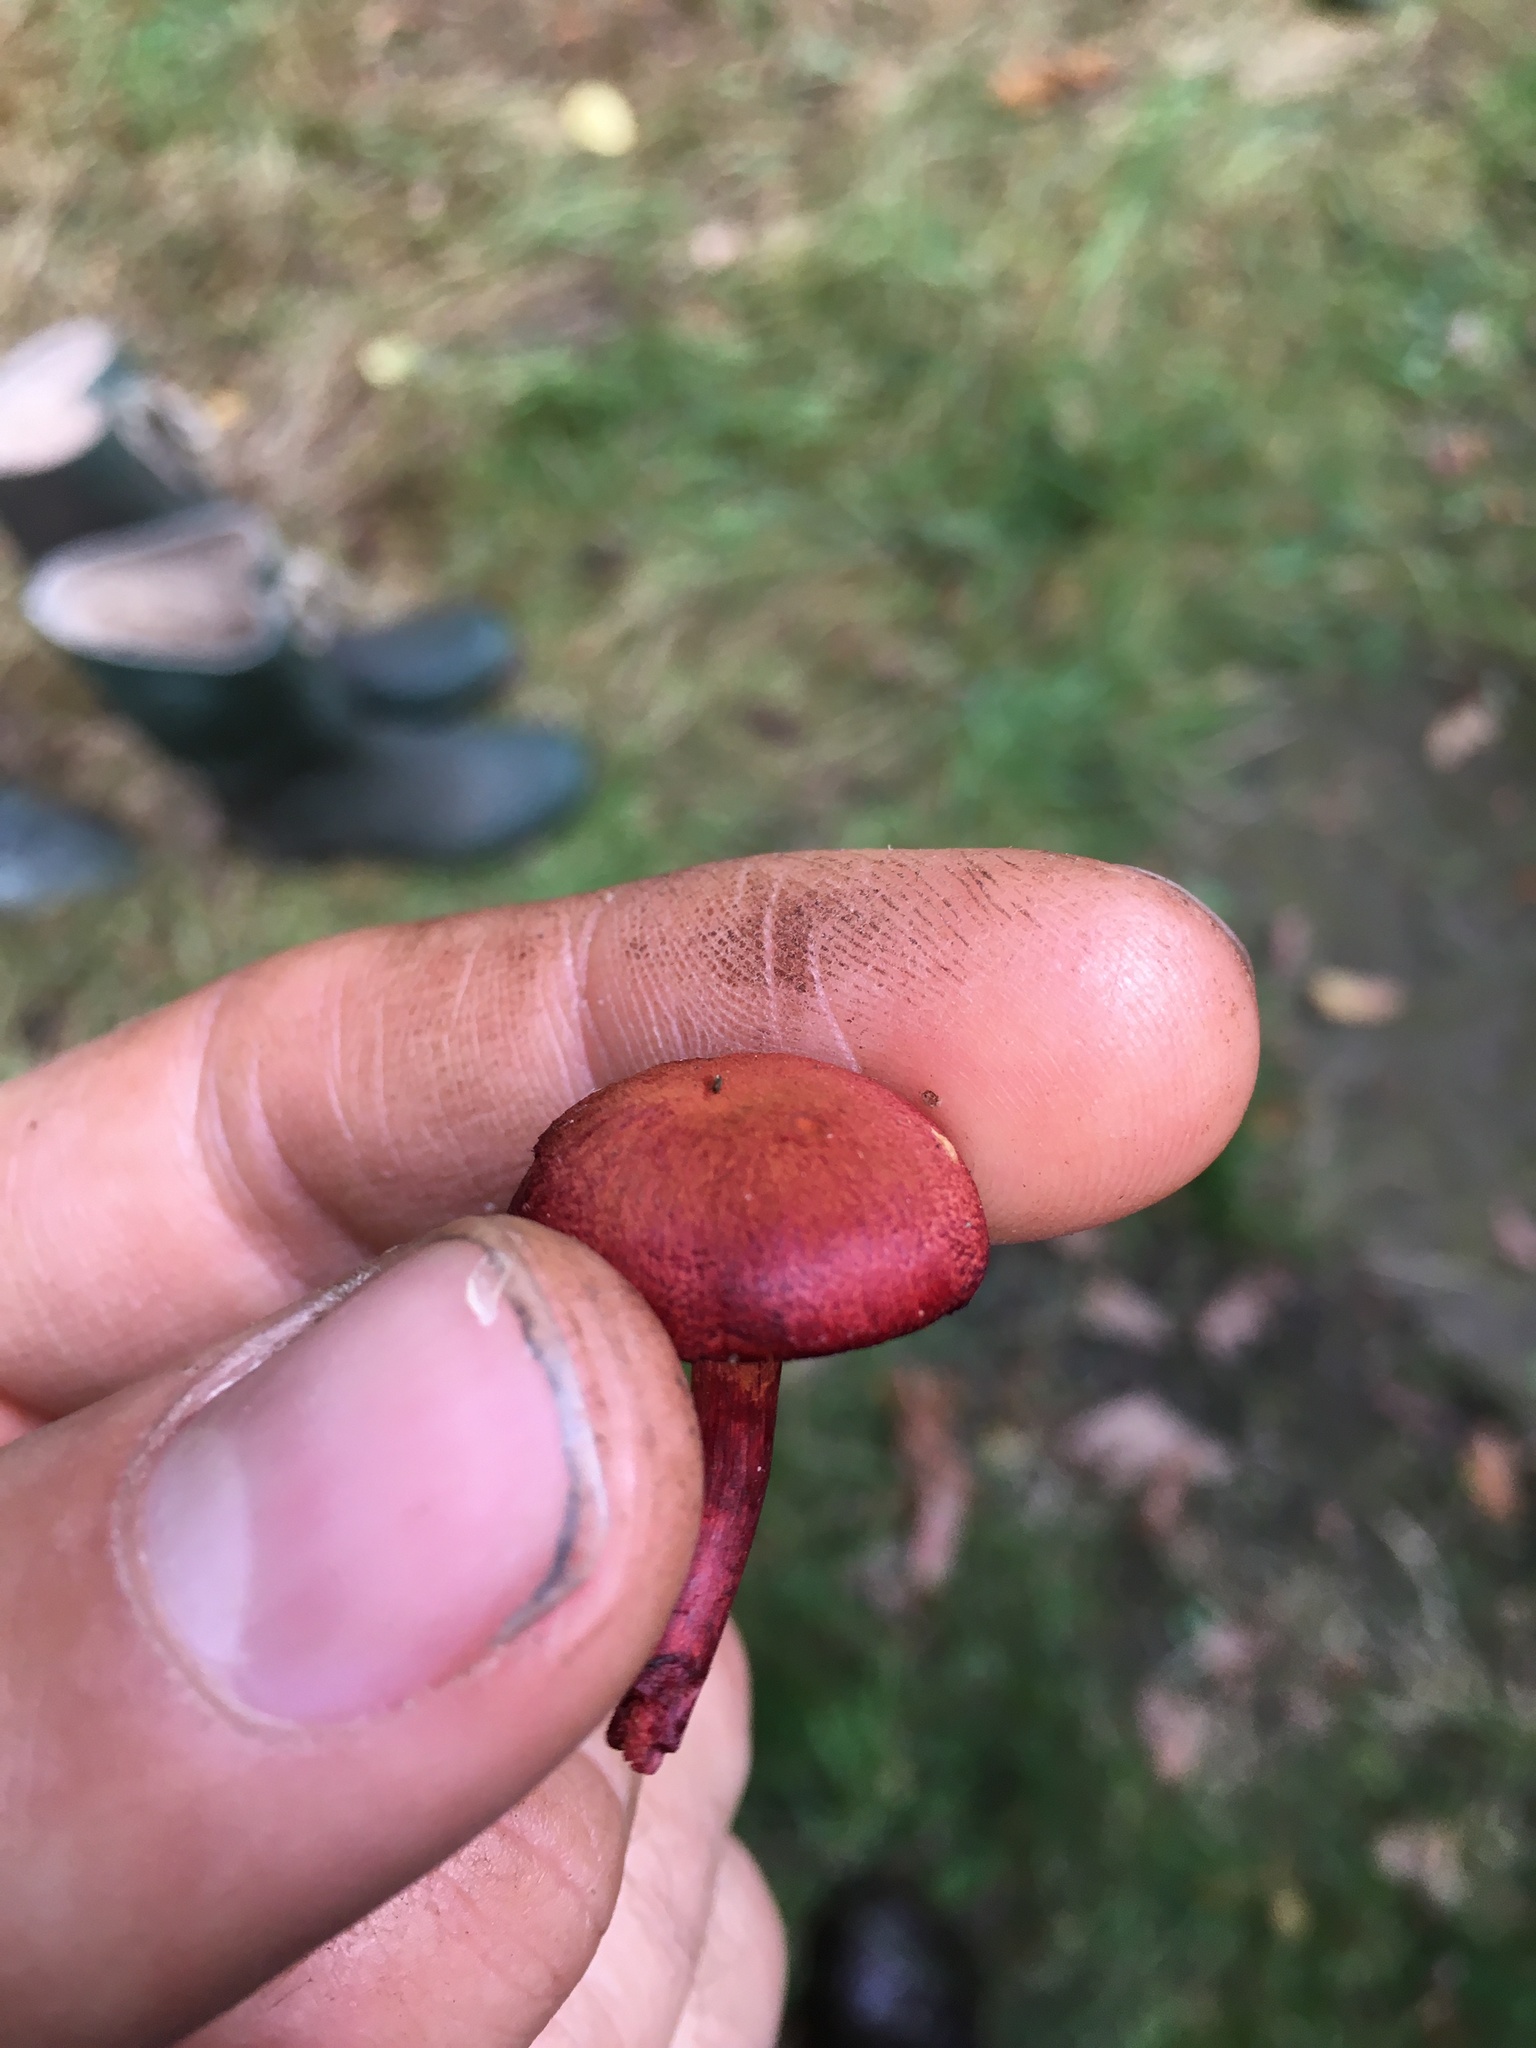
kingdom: Fungi
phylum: Basidiomycota
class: Agaricomycetes
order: Agaricales
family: Cortinariaceae
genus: Cortinarius
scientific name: Cortinarius sanguineus
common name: Bloodred webcap
